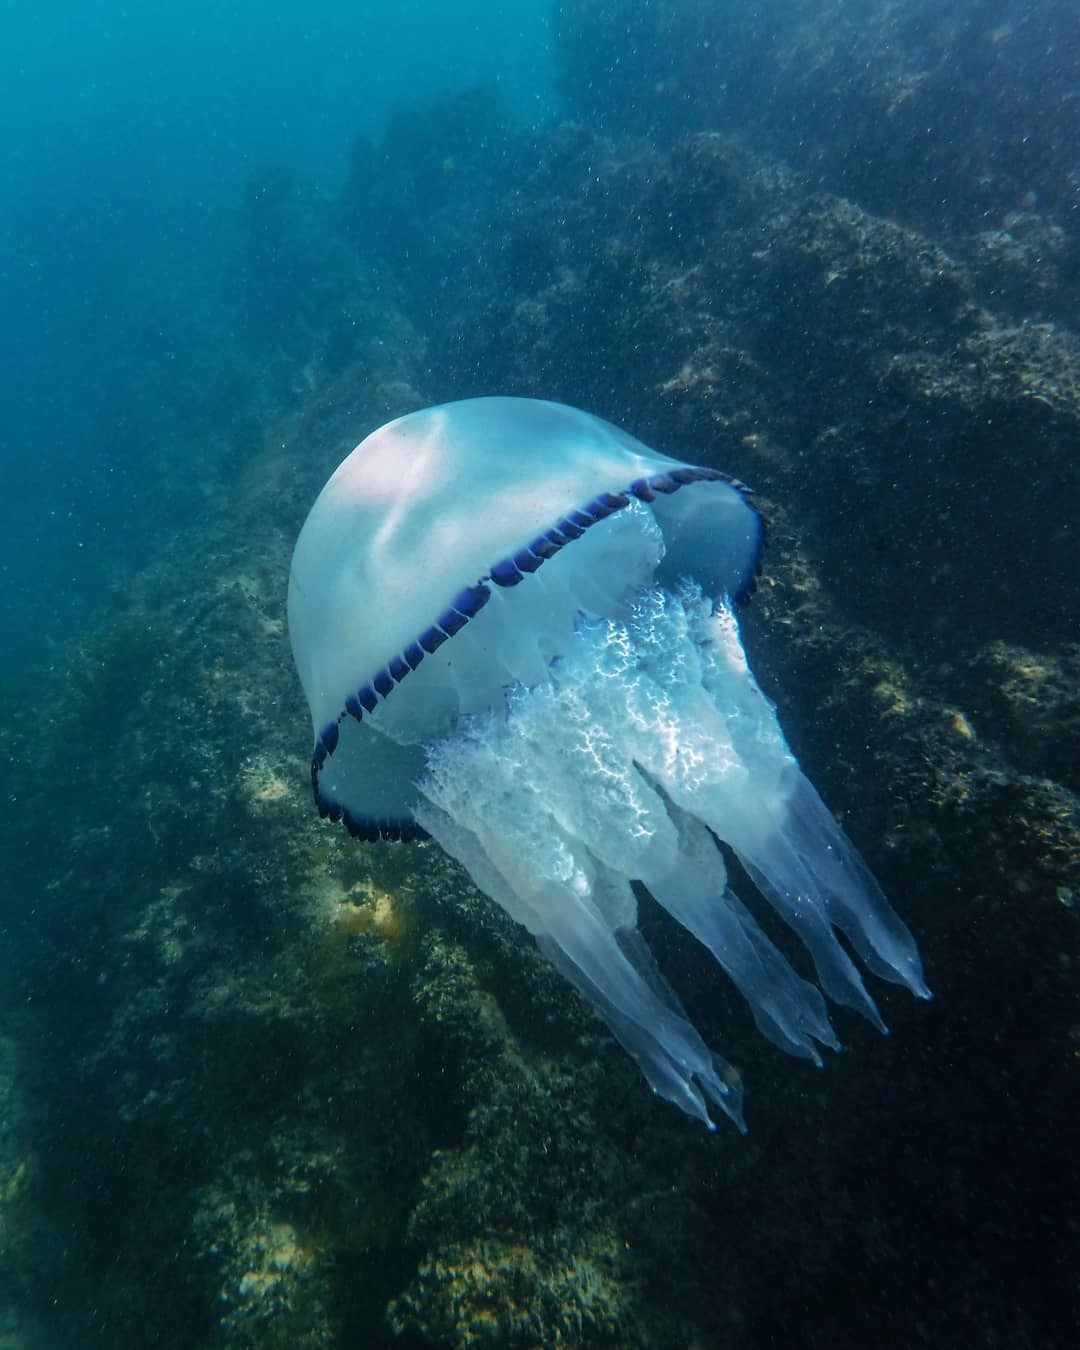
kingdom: Animalia
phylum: Cnidaria
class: Scyphozoa
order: Rhizostomeae
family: Rhizostomatidae
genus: Rhizostoma
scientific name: Rhizostoma pulmo
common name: Barrel jellyfish
